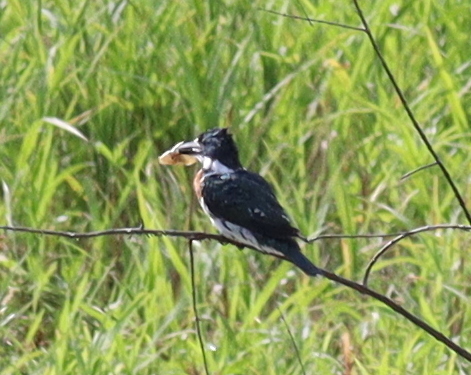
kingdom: Animalia
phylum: Chordata
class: Aves
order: Coraciiformes
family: Alcedinidae
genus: Chloroceryle
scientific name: Chloroceryle amazona
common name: Amazon kingfisher
